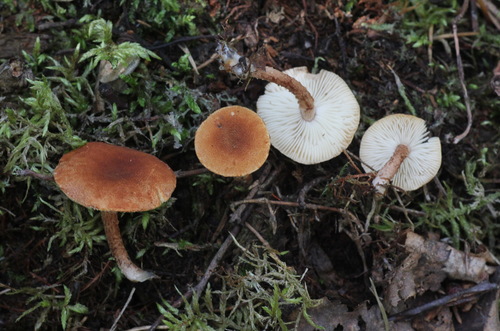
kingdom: Fungi
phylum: Basidiomycota
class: Agaricomycetes
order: Agaricales
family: Tricholomataceae
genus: Cystoderma
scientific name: Cystoderma jasonis
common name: Pine powdercap
